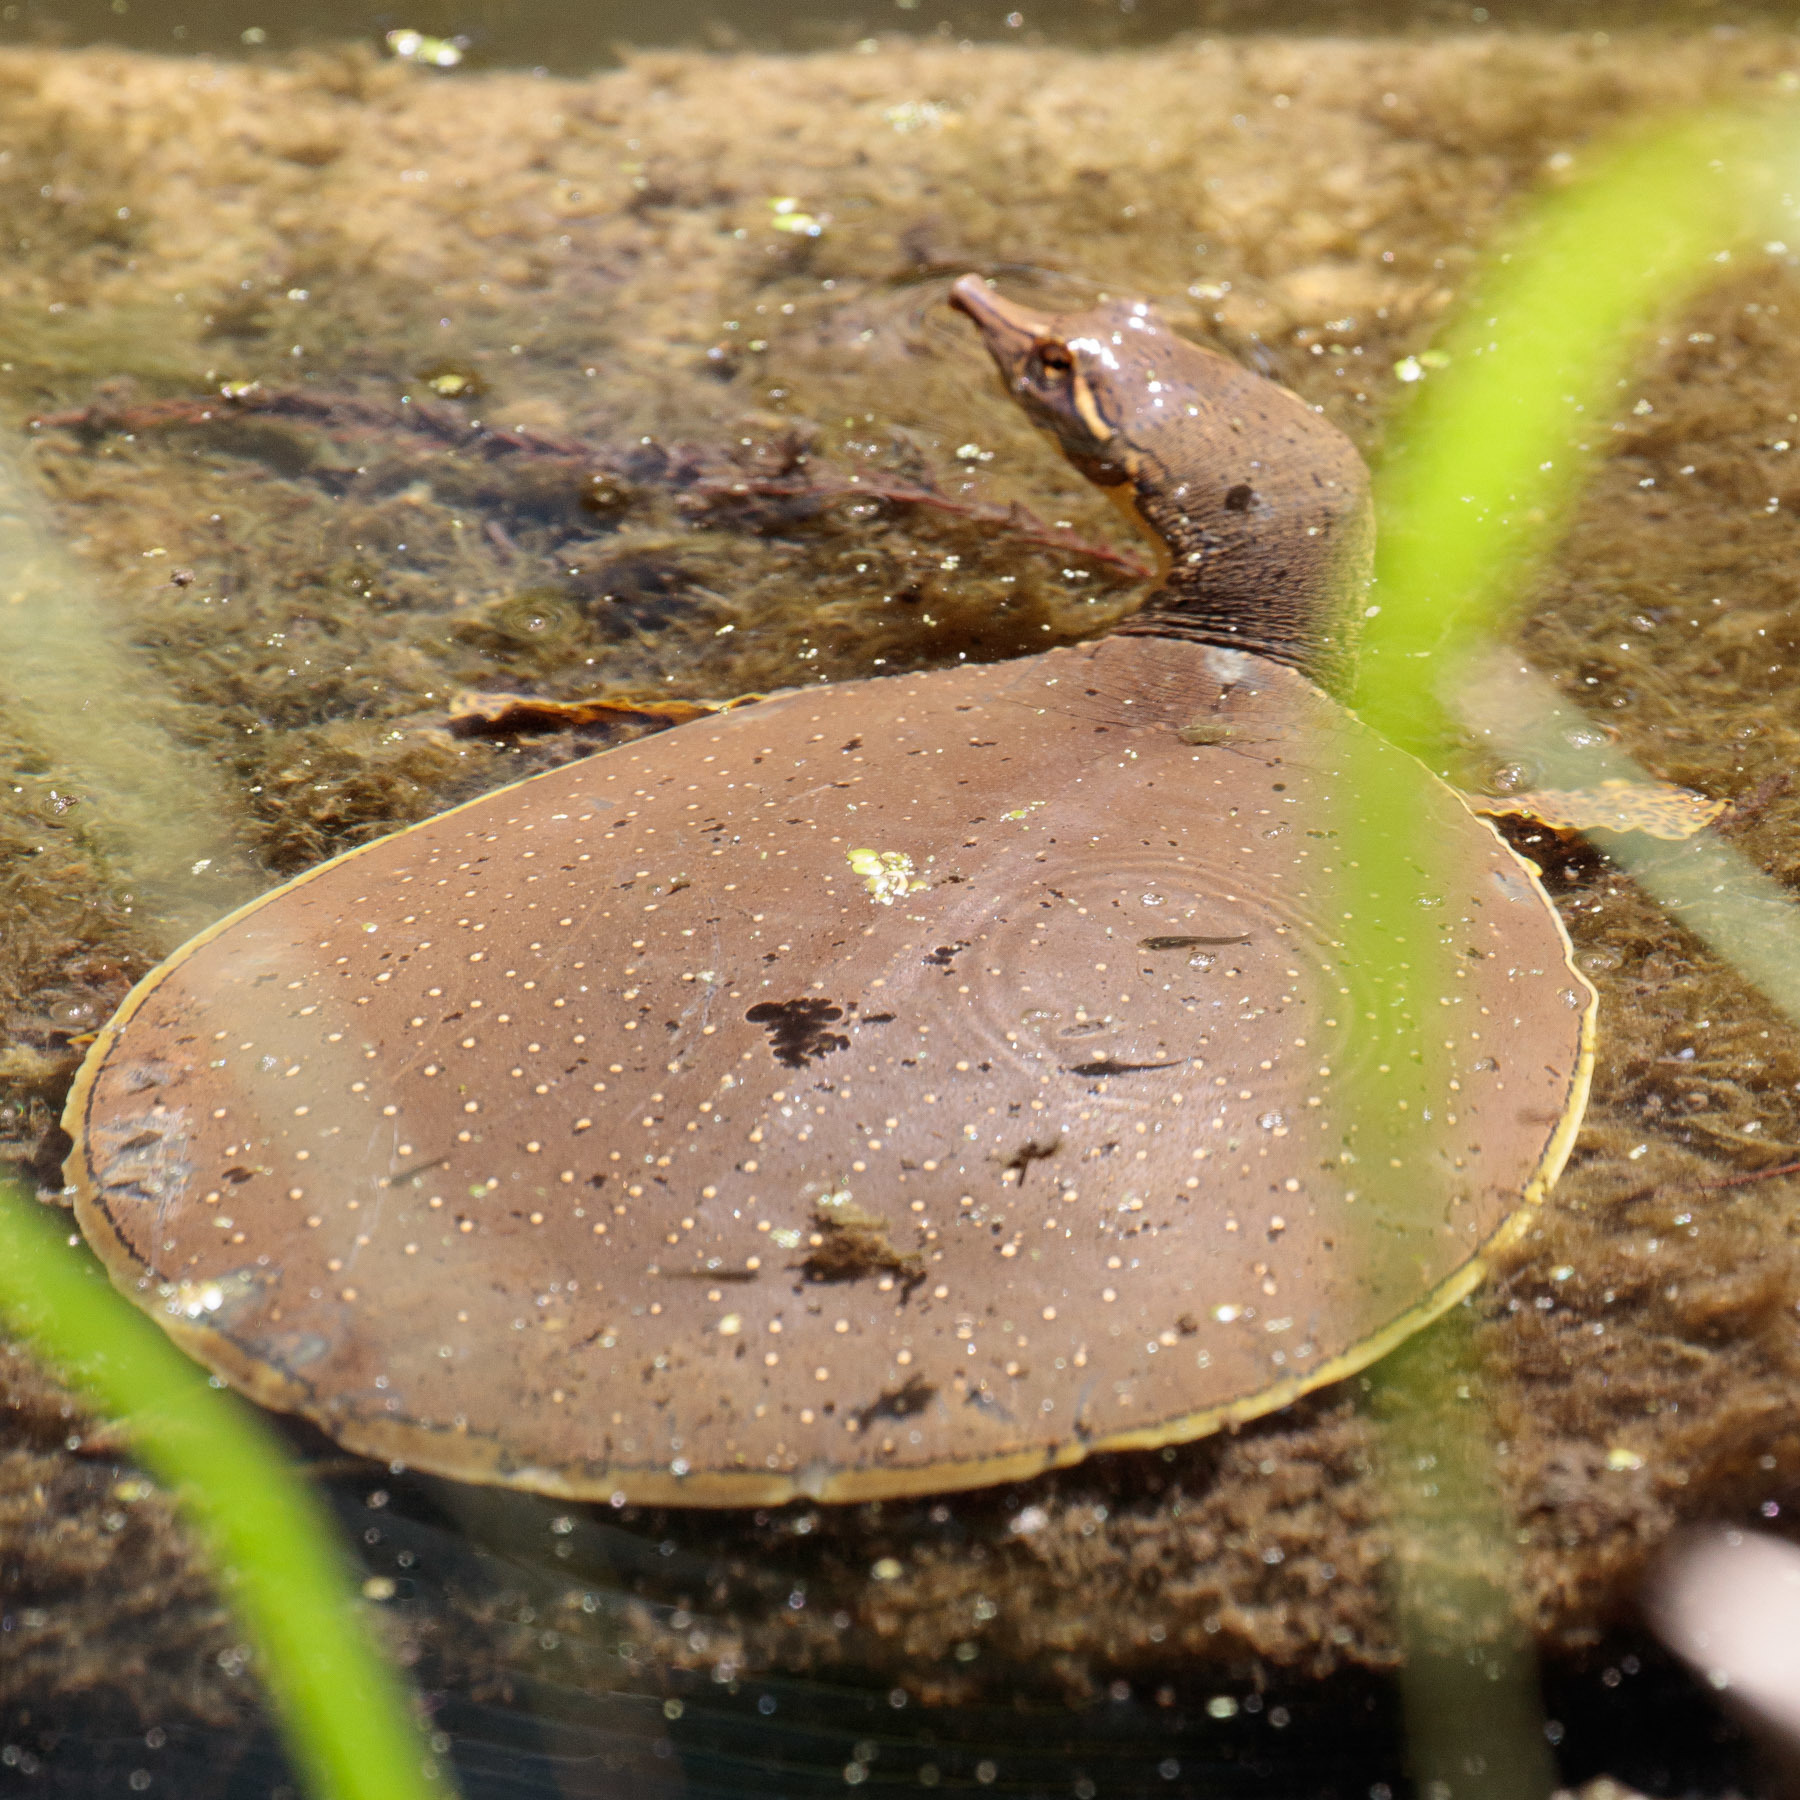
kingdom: Animalia
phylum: Chordata
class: Testudines
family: Trionychidae
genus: Apalone
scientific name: Apalone spinifera
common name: Spiny softshell turtle
